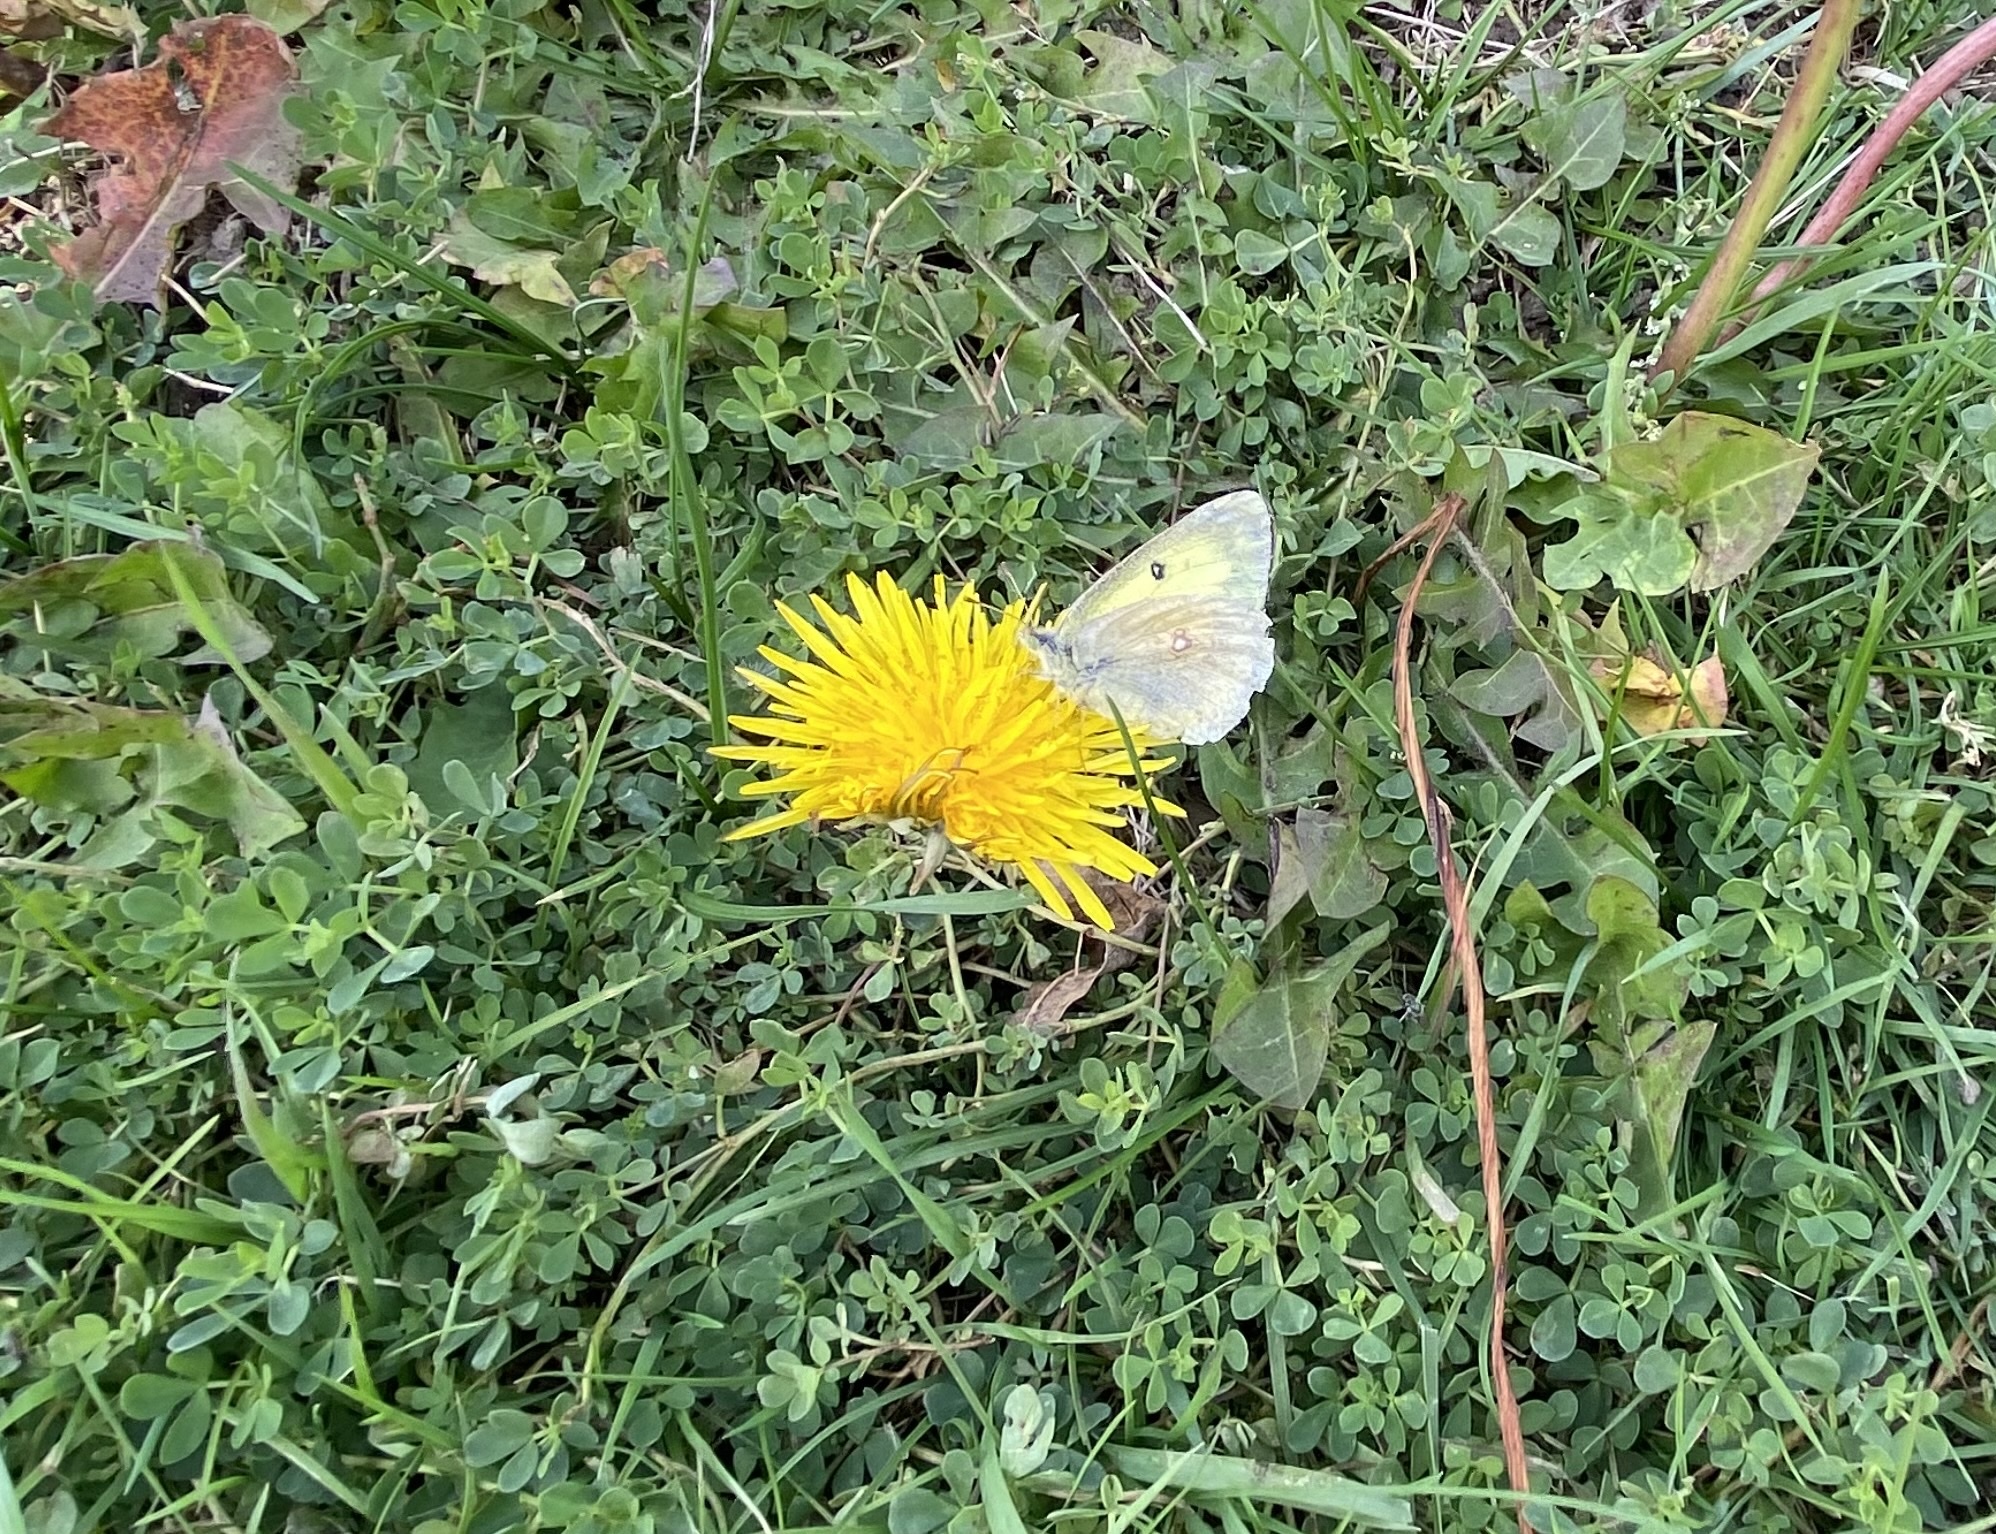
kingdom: Animalia
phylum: Arthropoda
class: Insecta
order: Lepidoptera
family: Pieridae
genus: Colias
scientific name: Colias philodice
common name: Clouded sulphur
